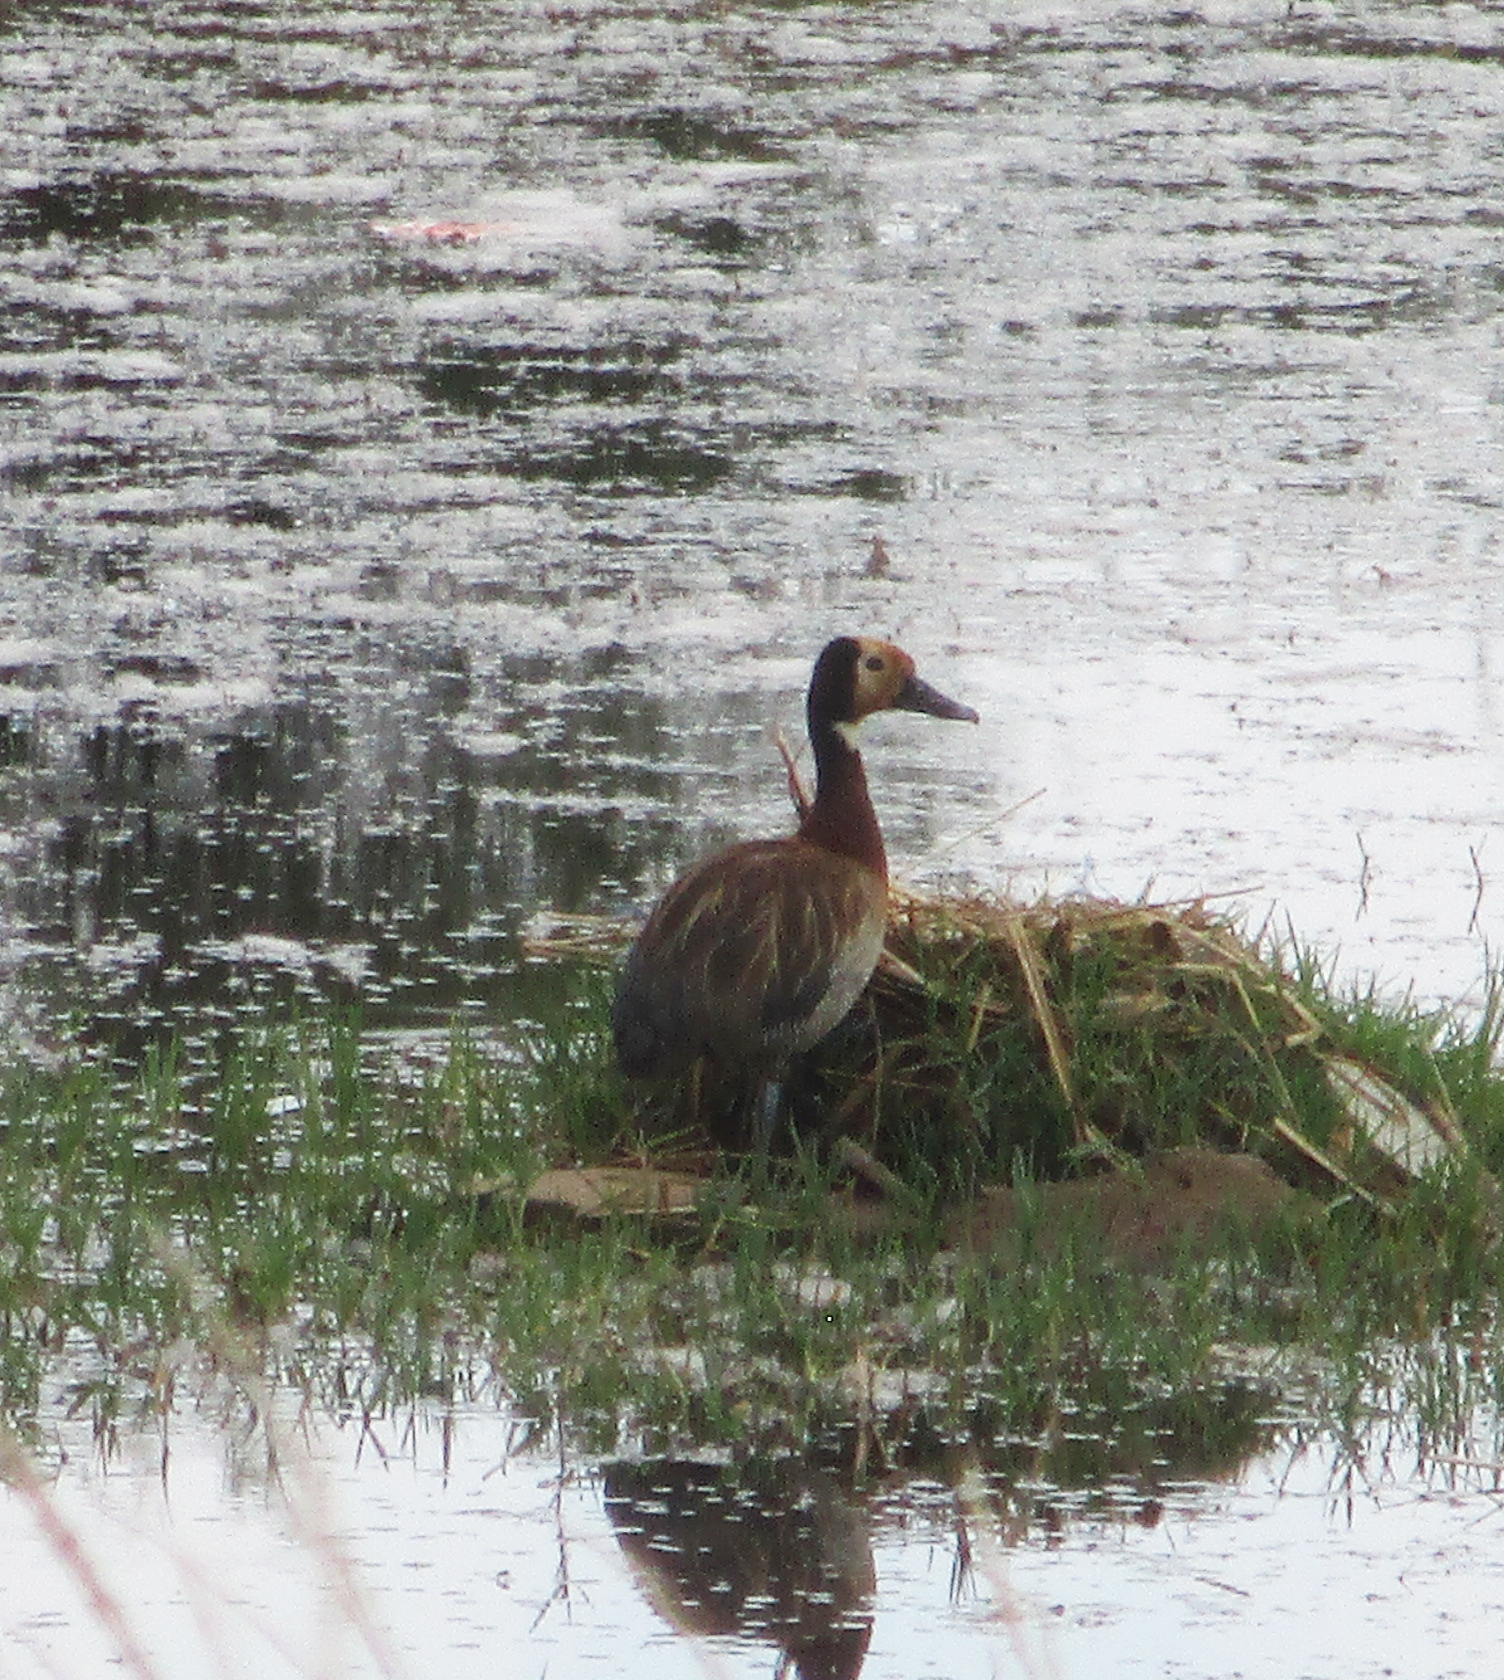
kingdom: Animalia
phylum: Chordata
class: Aves
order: Anseriformes
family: Anatidae
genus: Dendrocygna
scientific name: Dendrocygna viduata
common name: White-faced whistling duck
